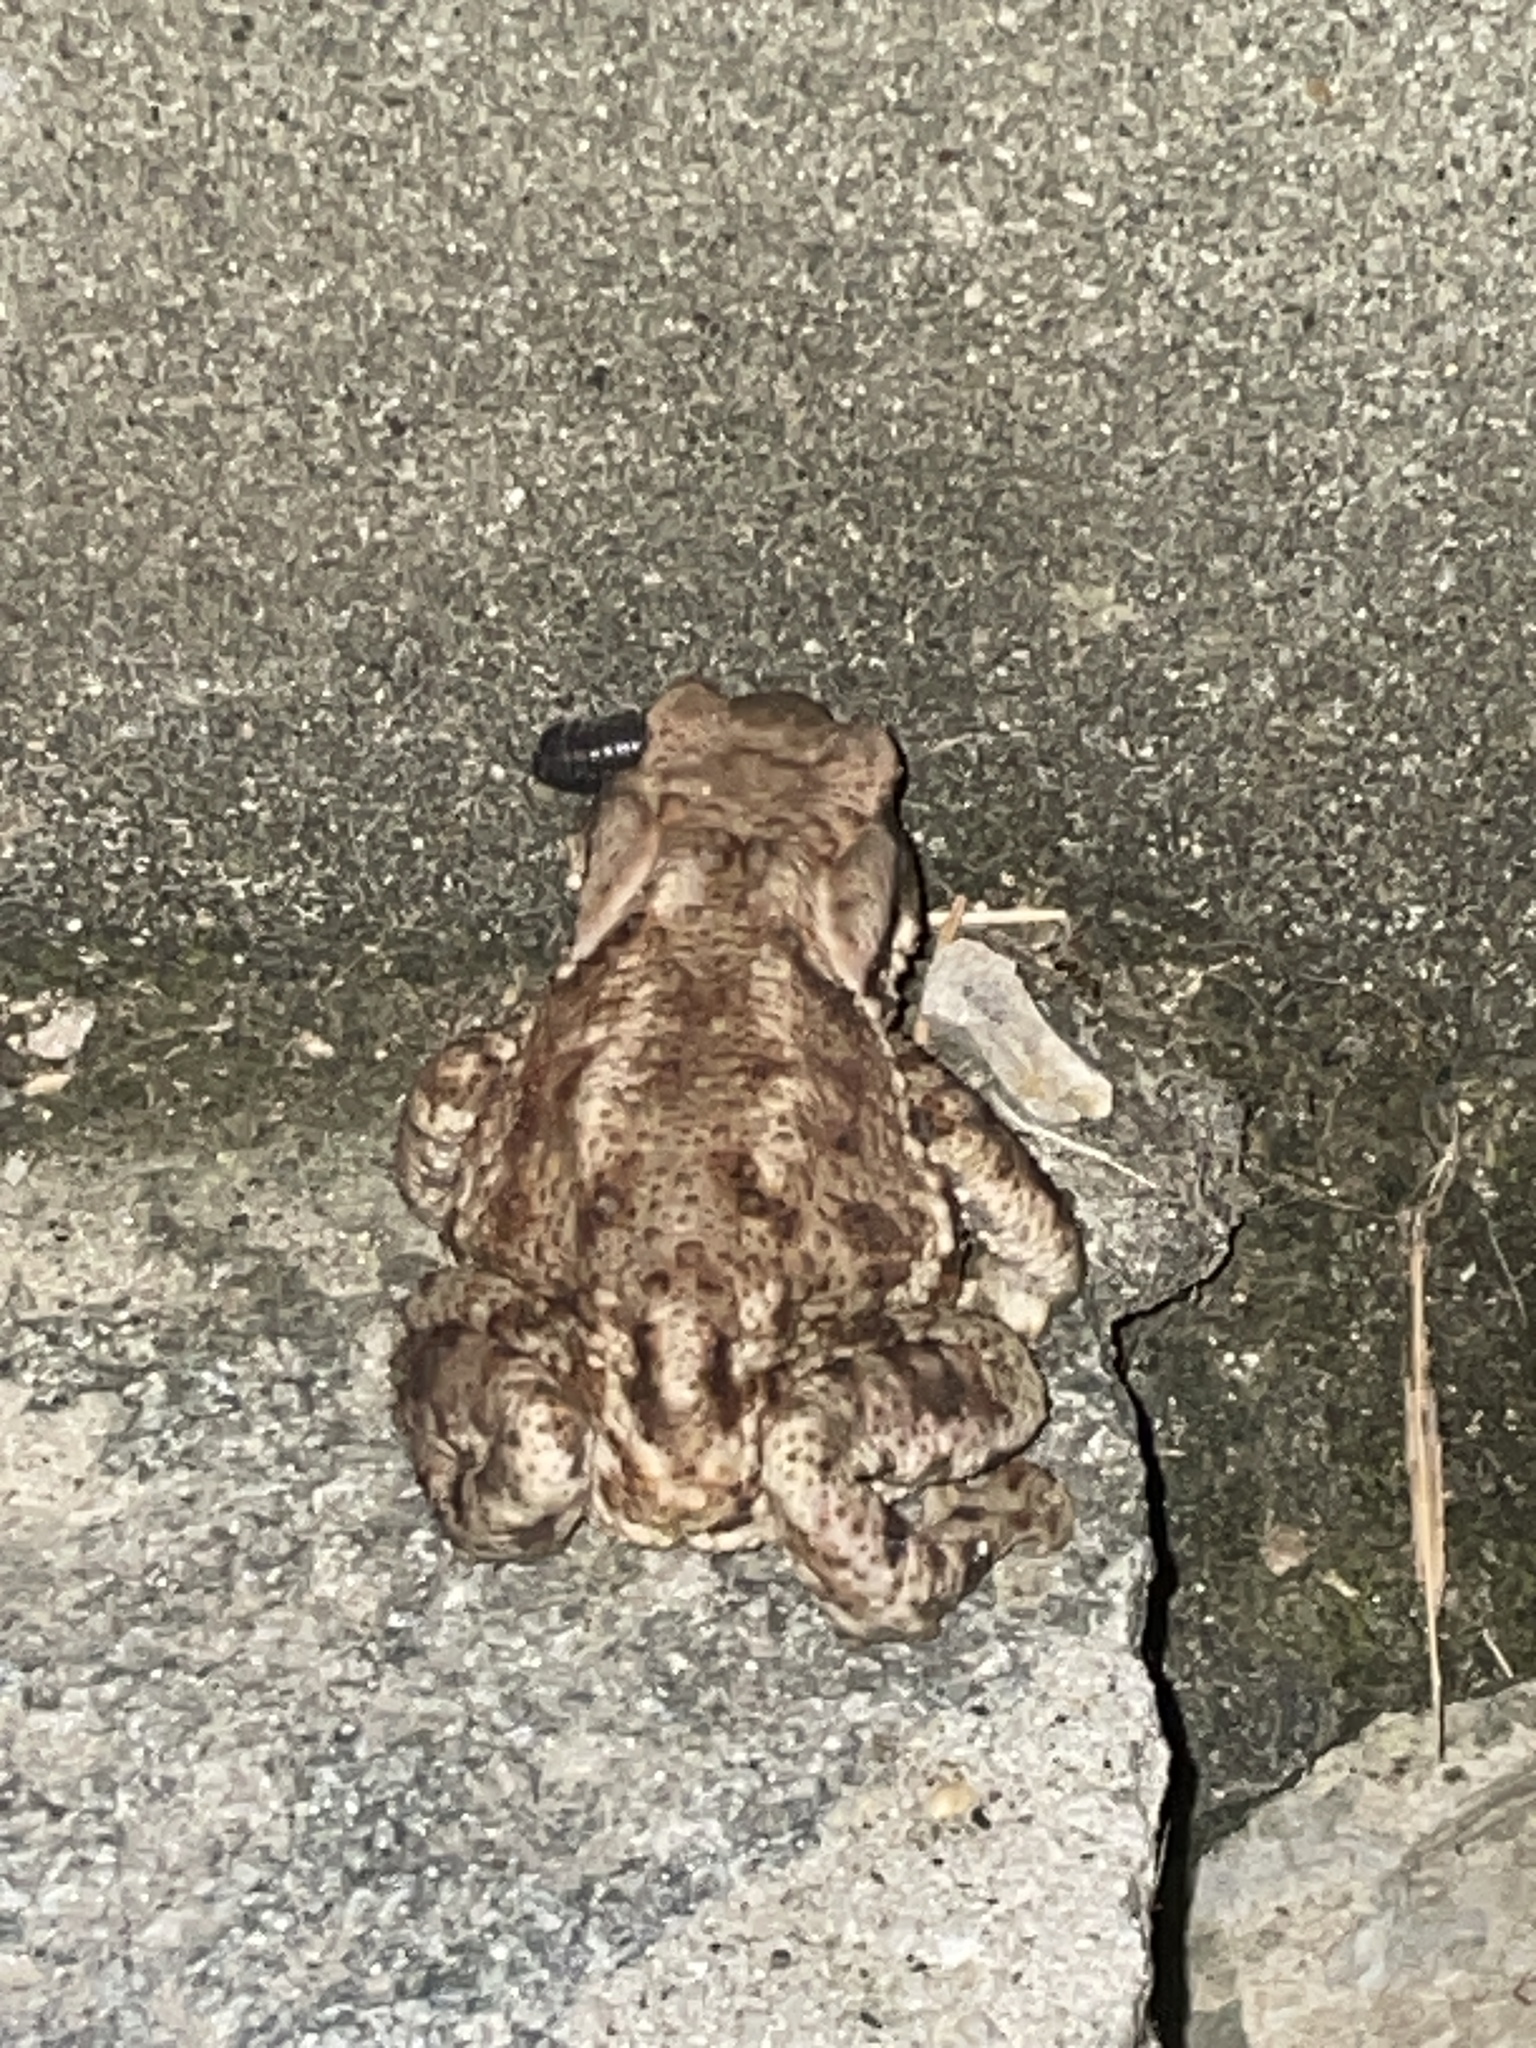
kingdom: Animalia
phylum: Chordata
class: Amphibia
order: Anura
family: Bufonidae
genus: Bufo
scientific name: Bufo bufo
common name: Common toad
